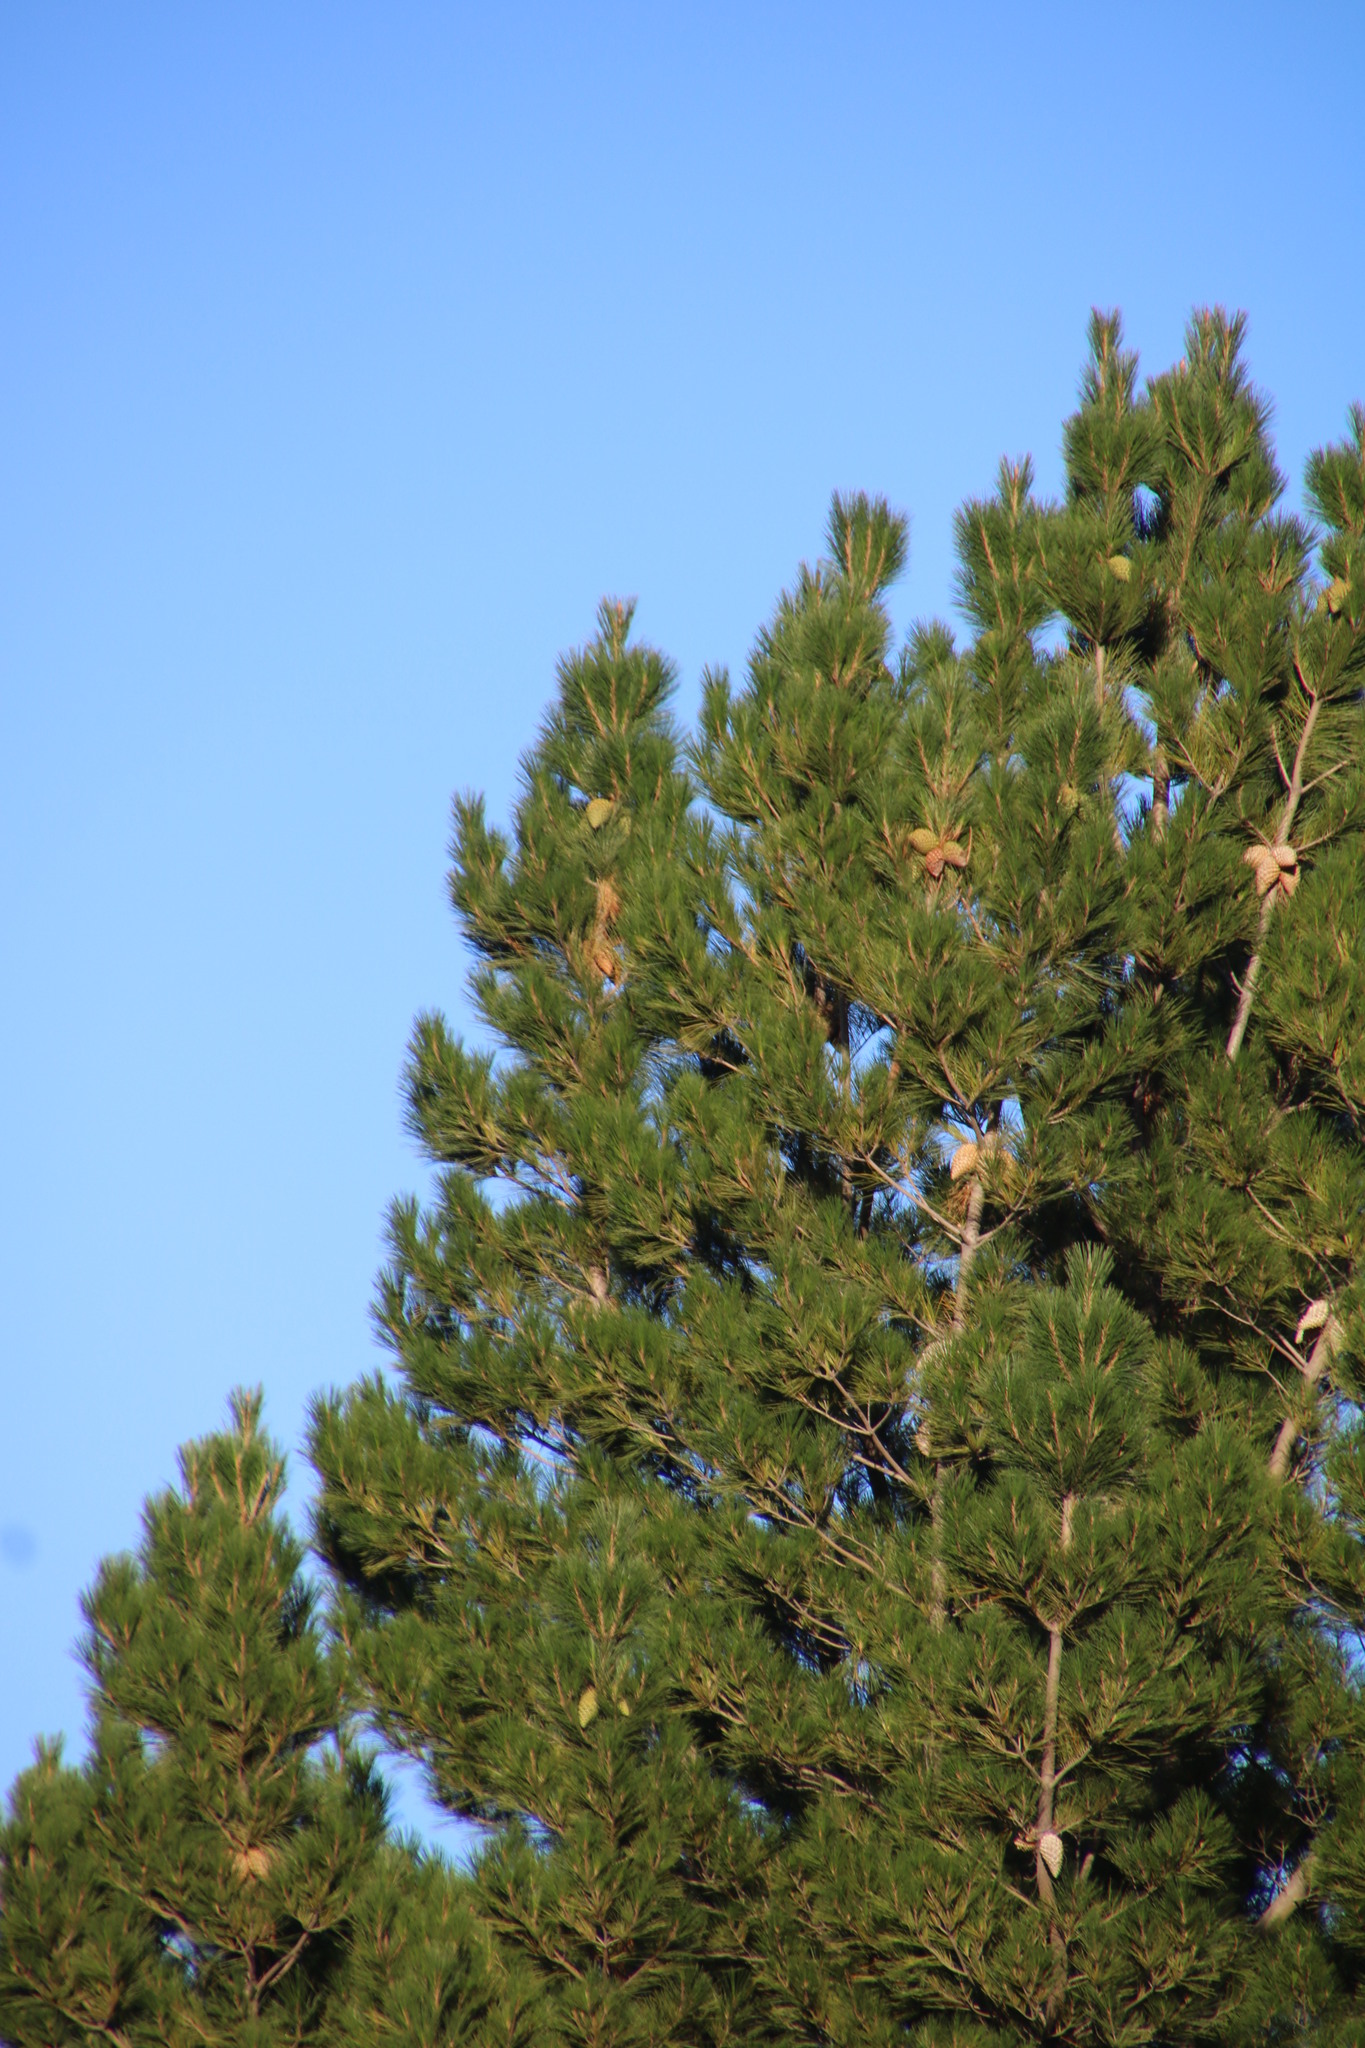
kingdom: Plantae
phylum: Tracheophyta
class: Pinopsida
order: Pinales
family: Pinaceae
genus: Pinus
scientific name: Pinus radiata
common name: Monterey pine
